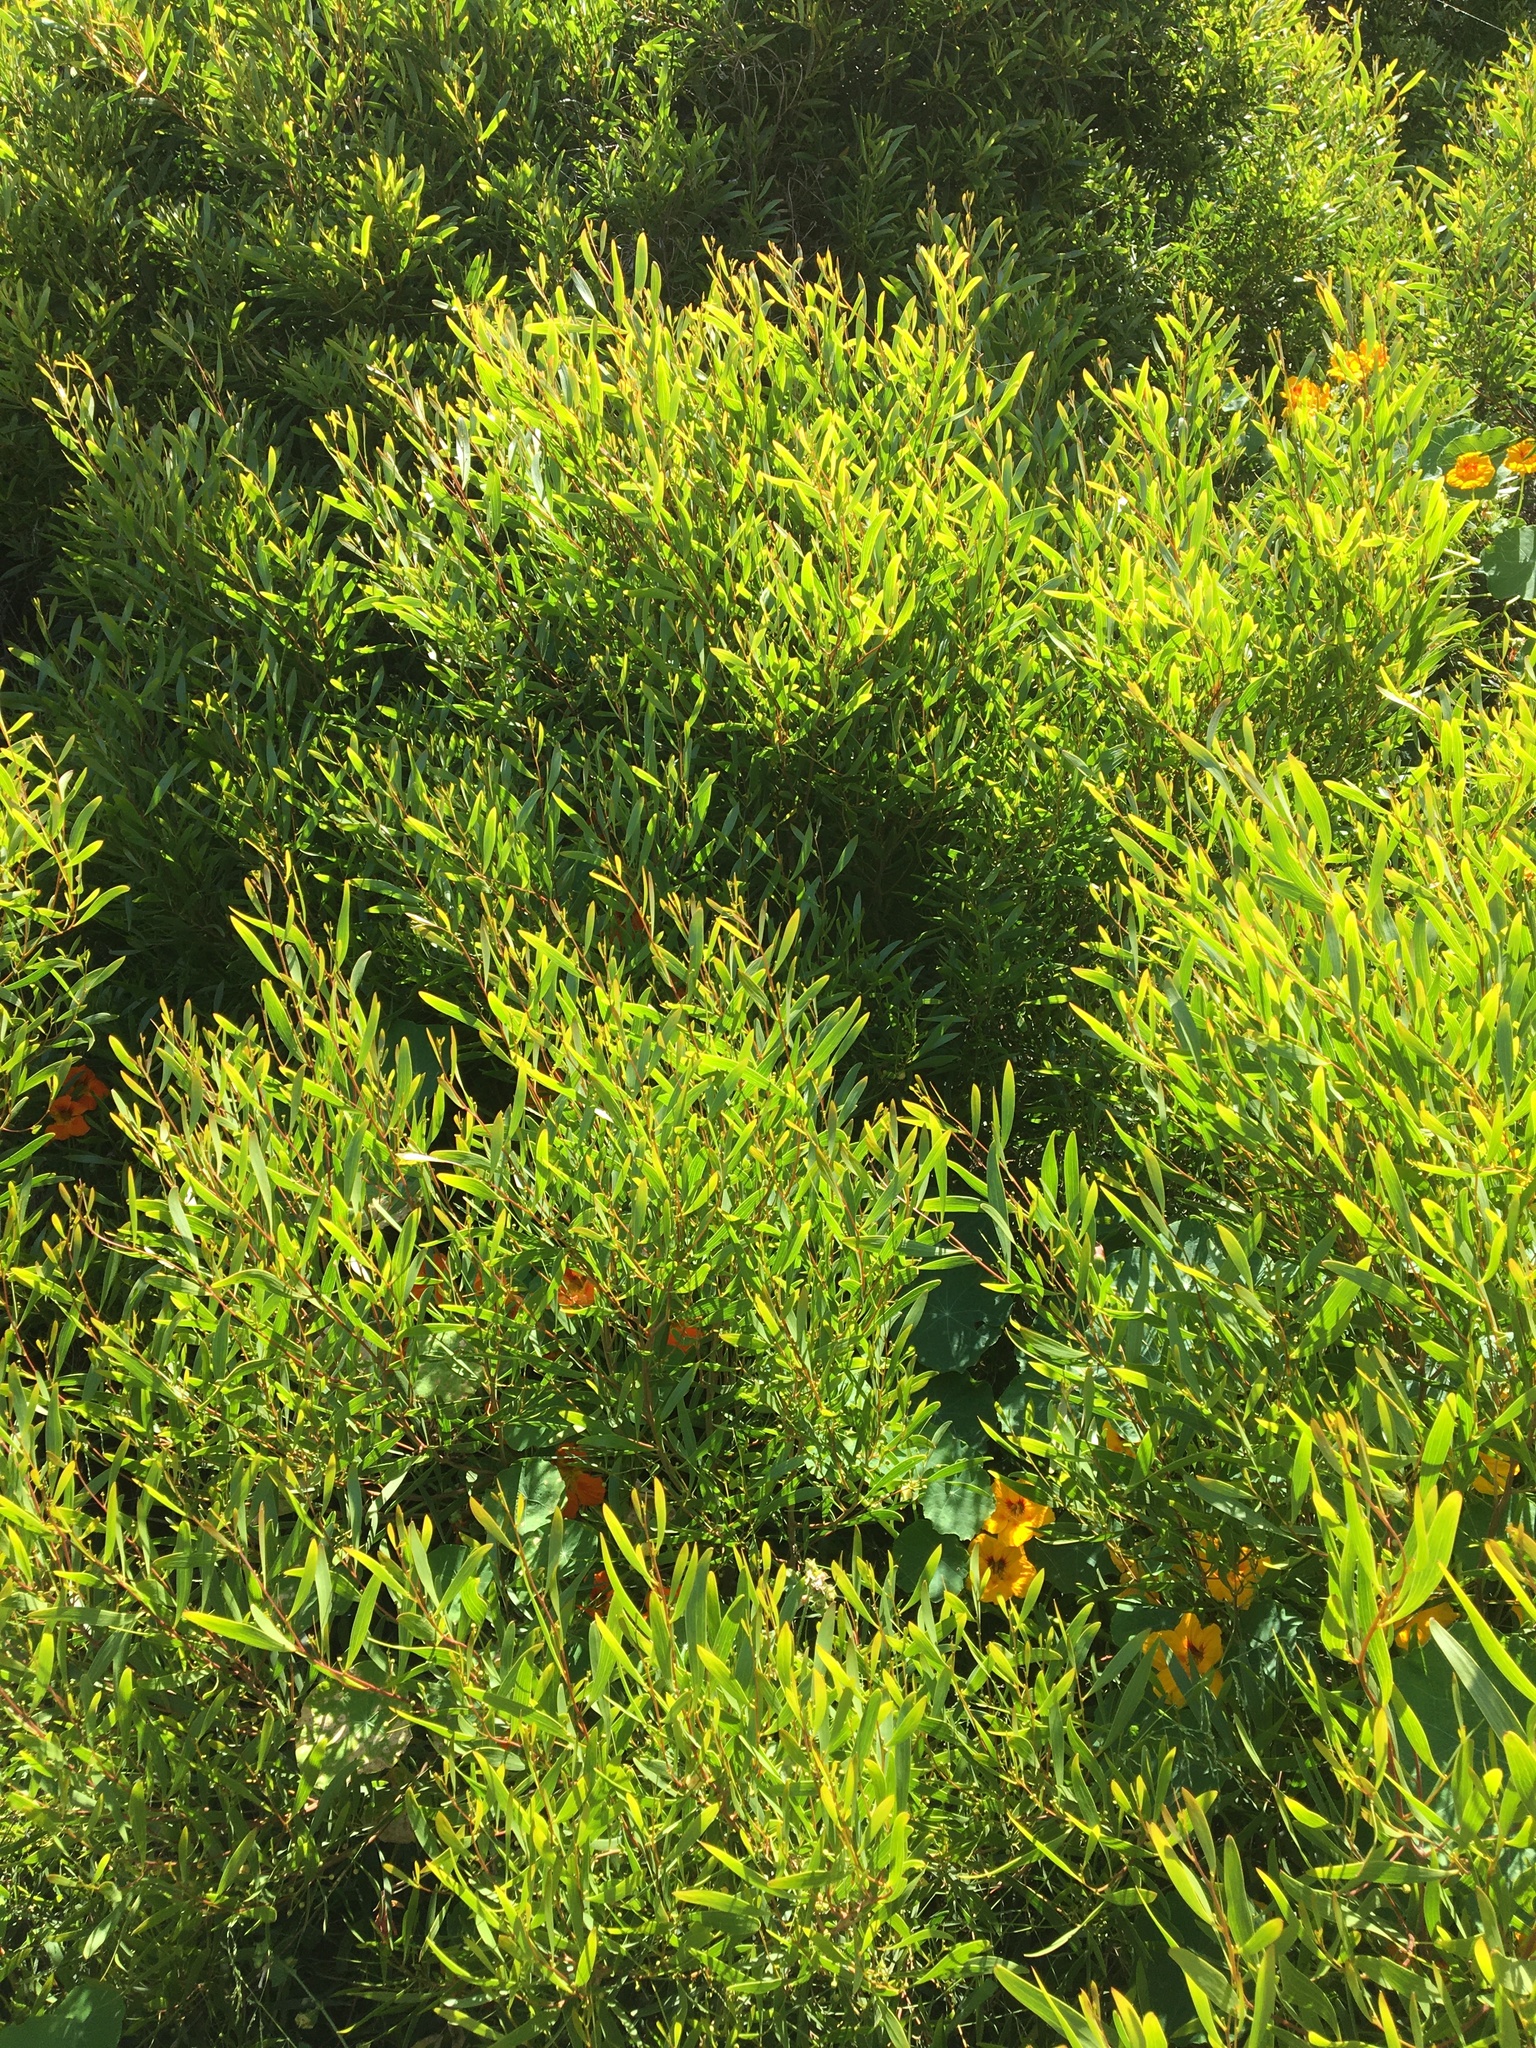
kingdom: Plantae
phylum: Tracheophyta
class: Magnoliopsida
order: Fabales
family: Fabaceae
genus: Acacia
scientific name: Acacia cyclops
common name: Coastal wattle
